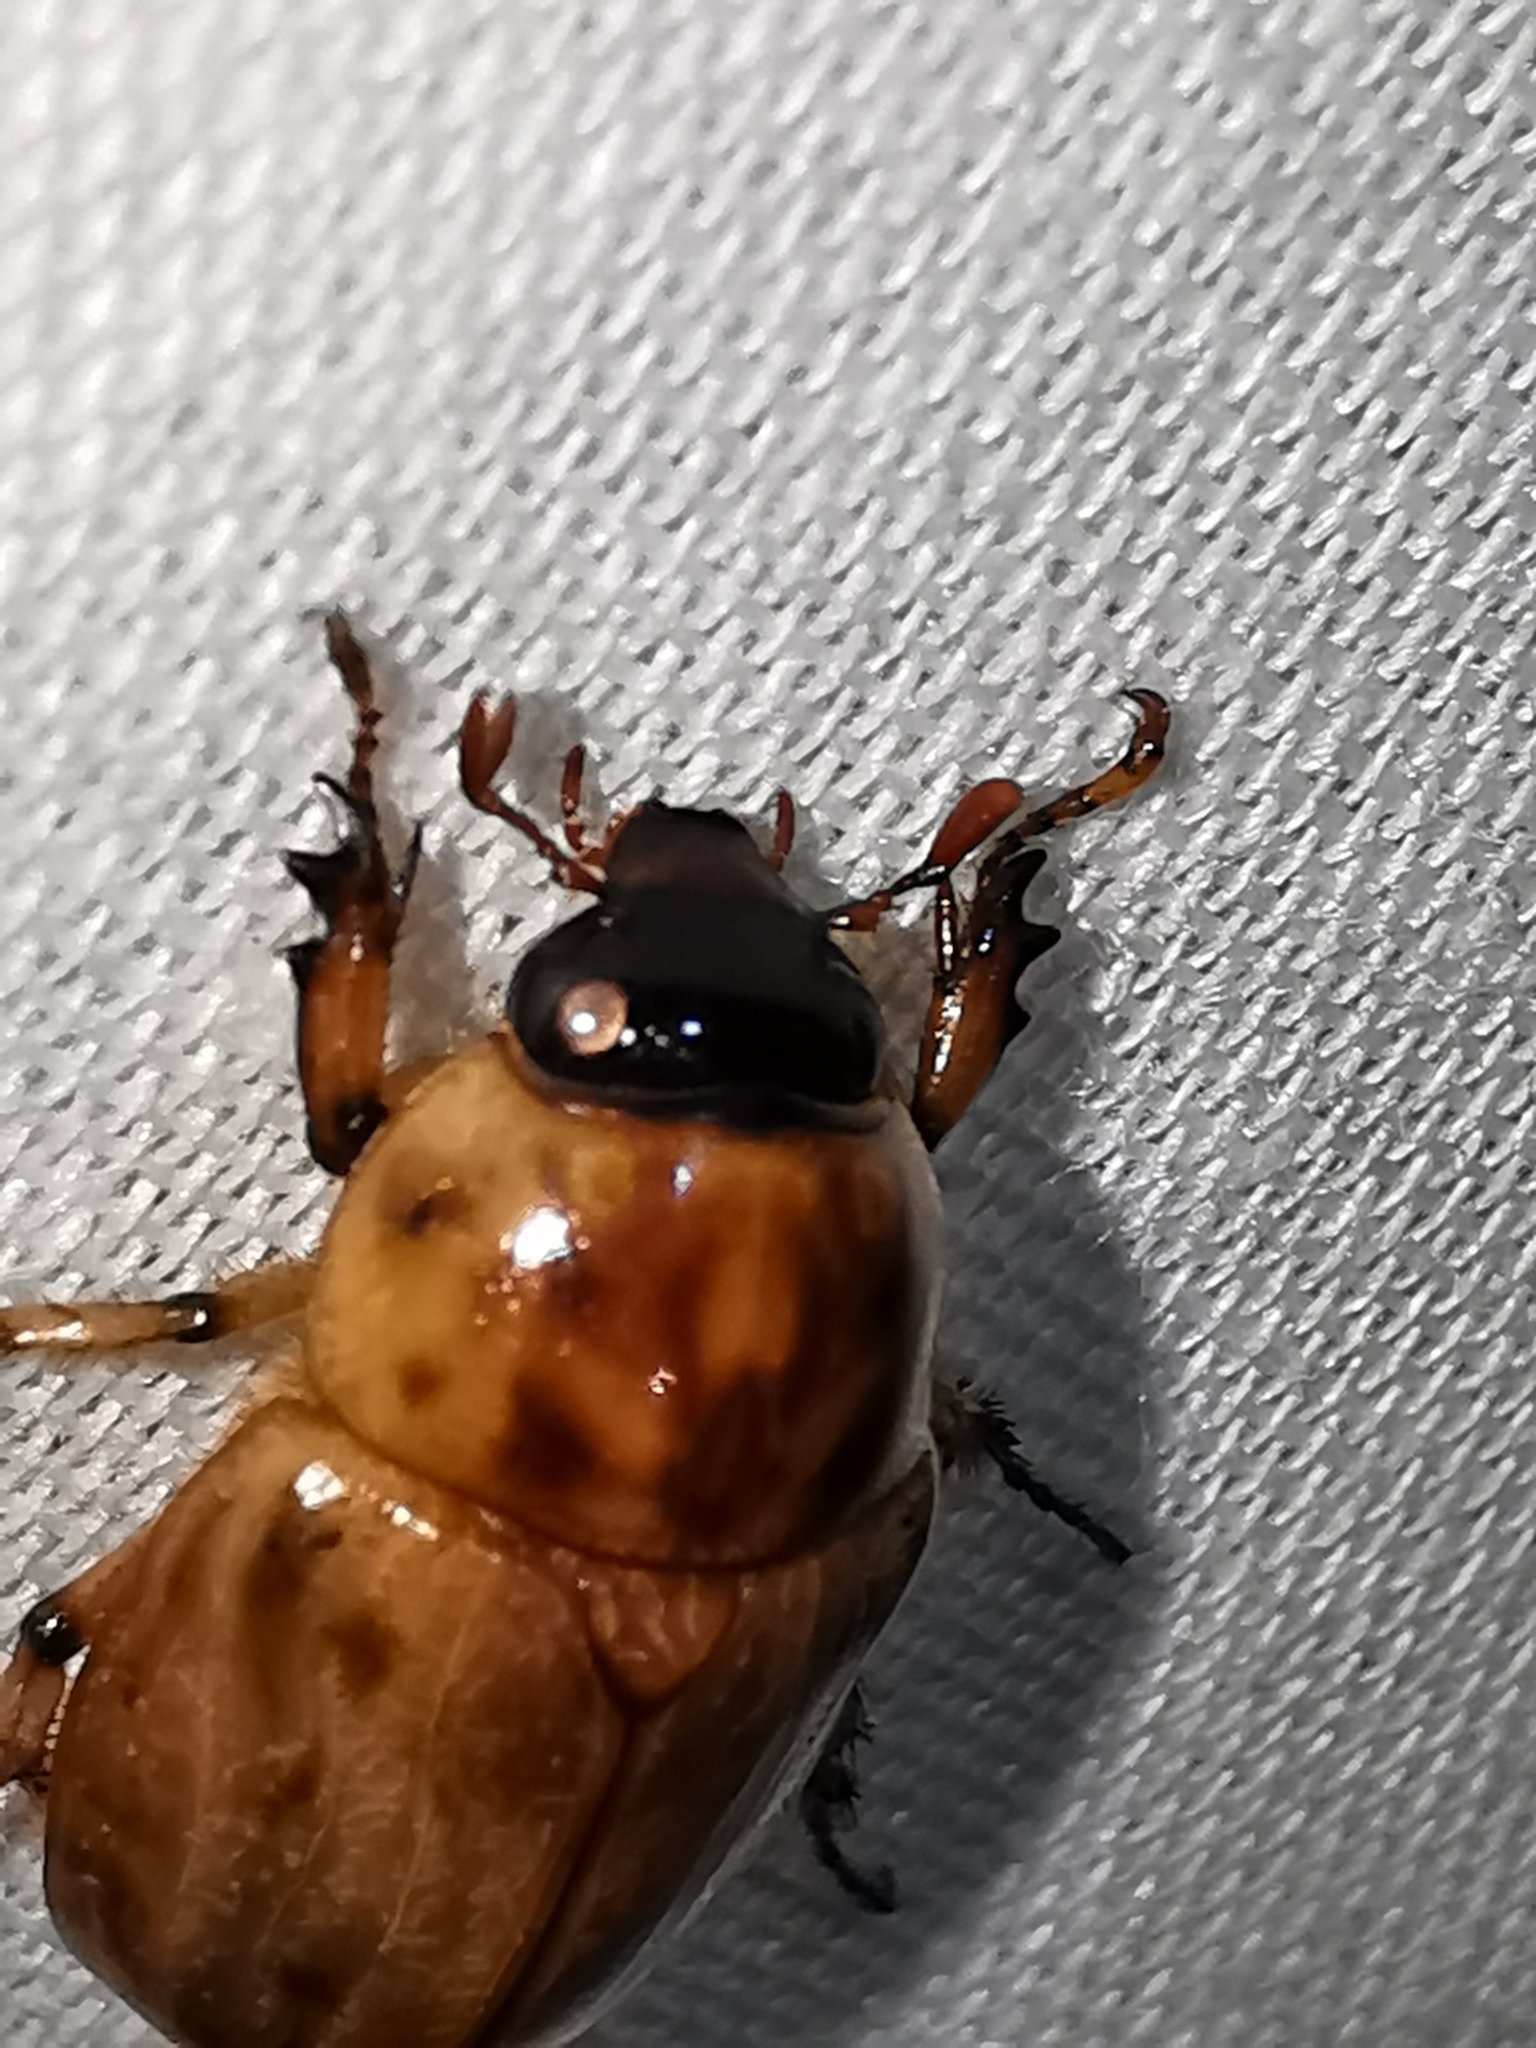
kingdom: Animalia
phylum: Arthropoda
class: Insecta
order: Coleoptera
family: Scarabaeidae
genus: Cyclocephala
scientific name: Cyclocephala lunulata
